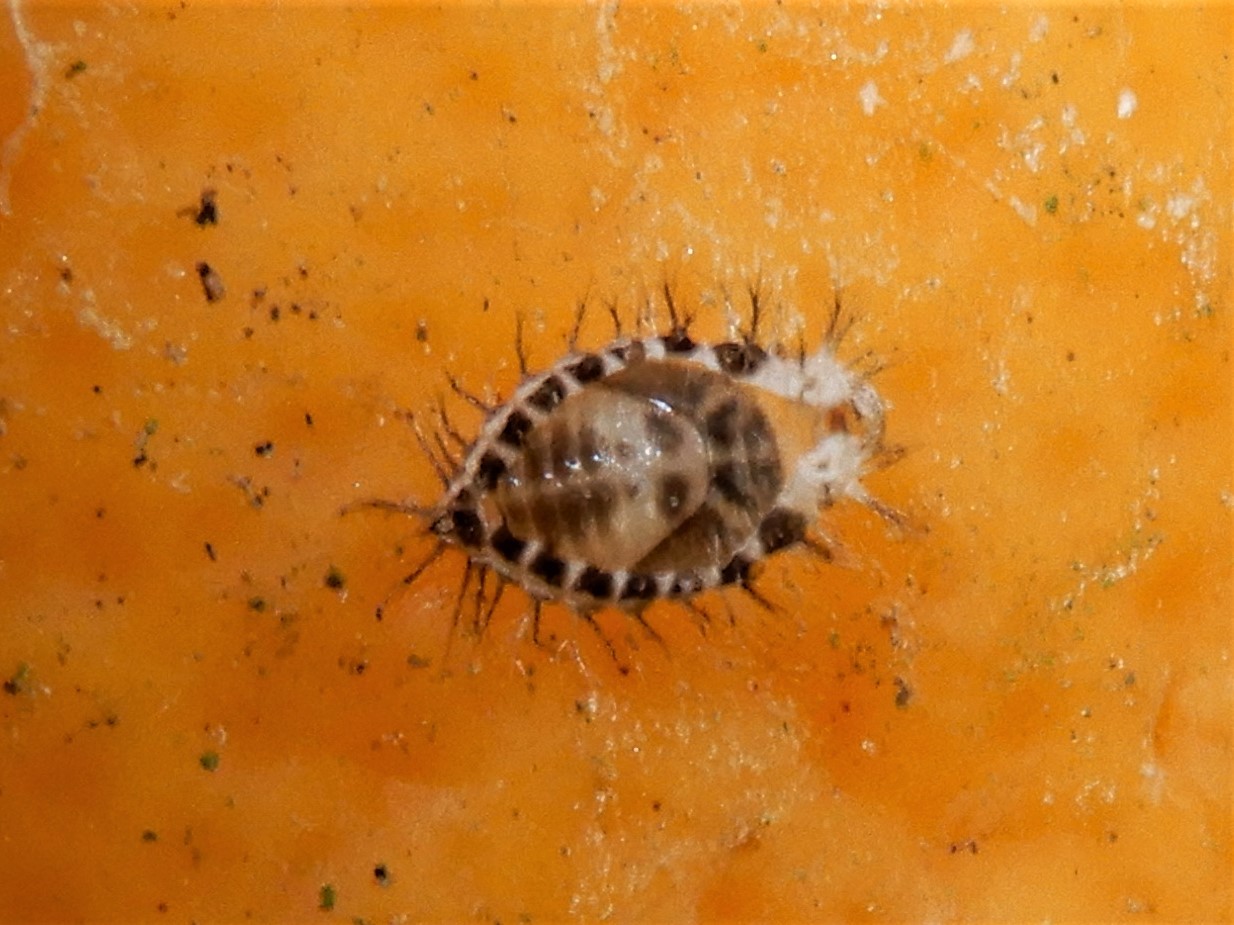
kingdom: Animalia
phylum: Arthropoda
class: Insecta
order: Coleoptera
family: Coccinellidae
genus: Halmus
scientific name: Halmus chalybeus
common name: Steel blue ladybird beetle
